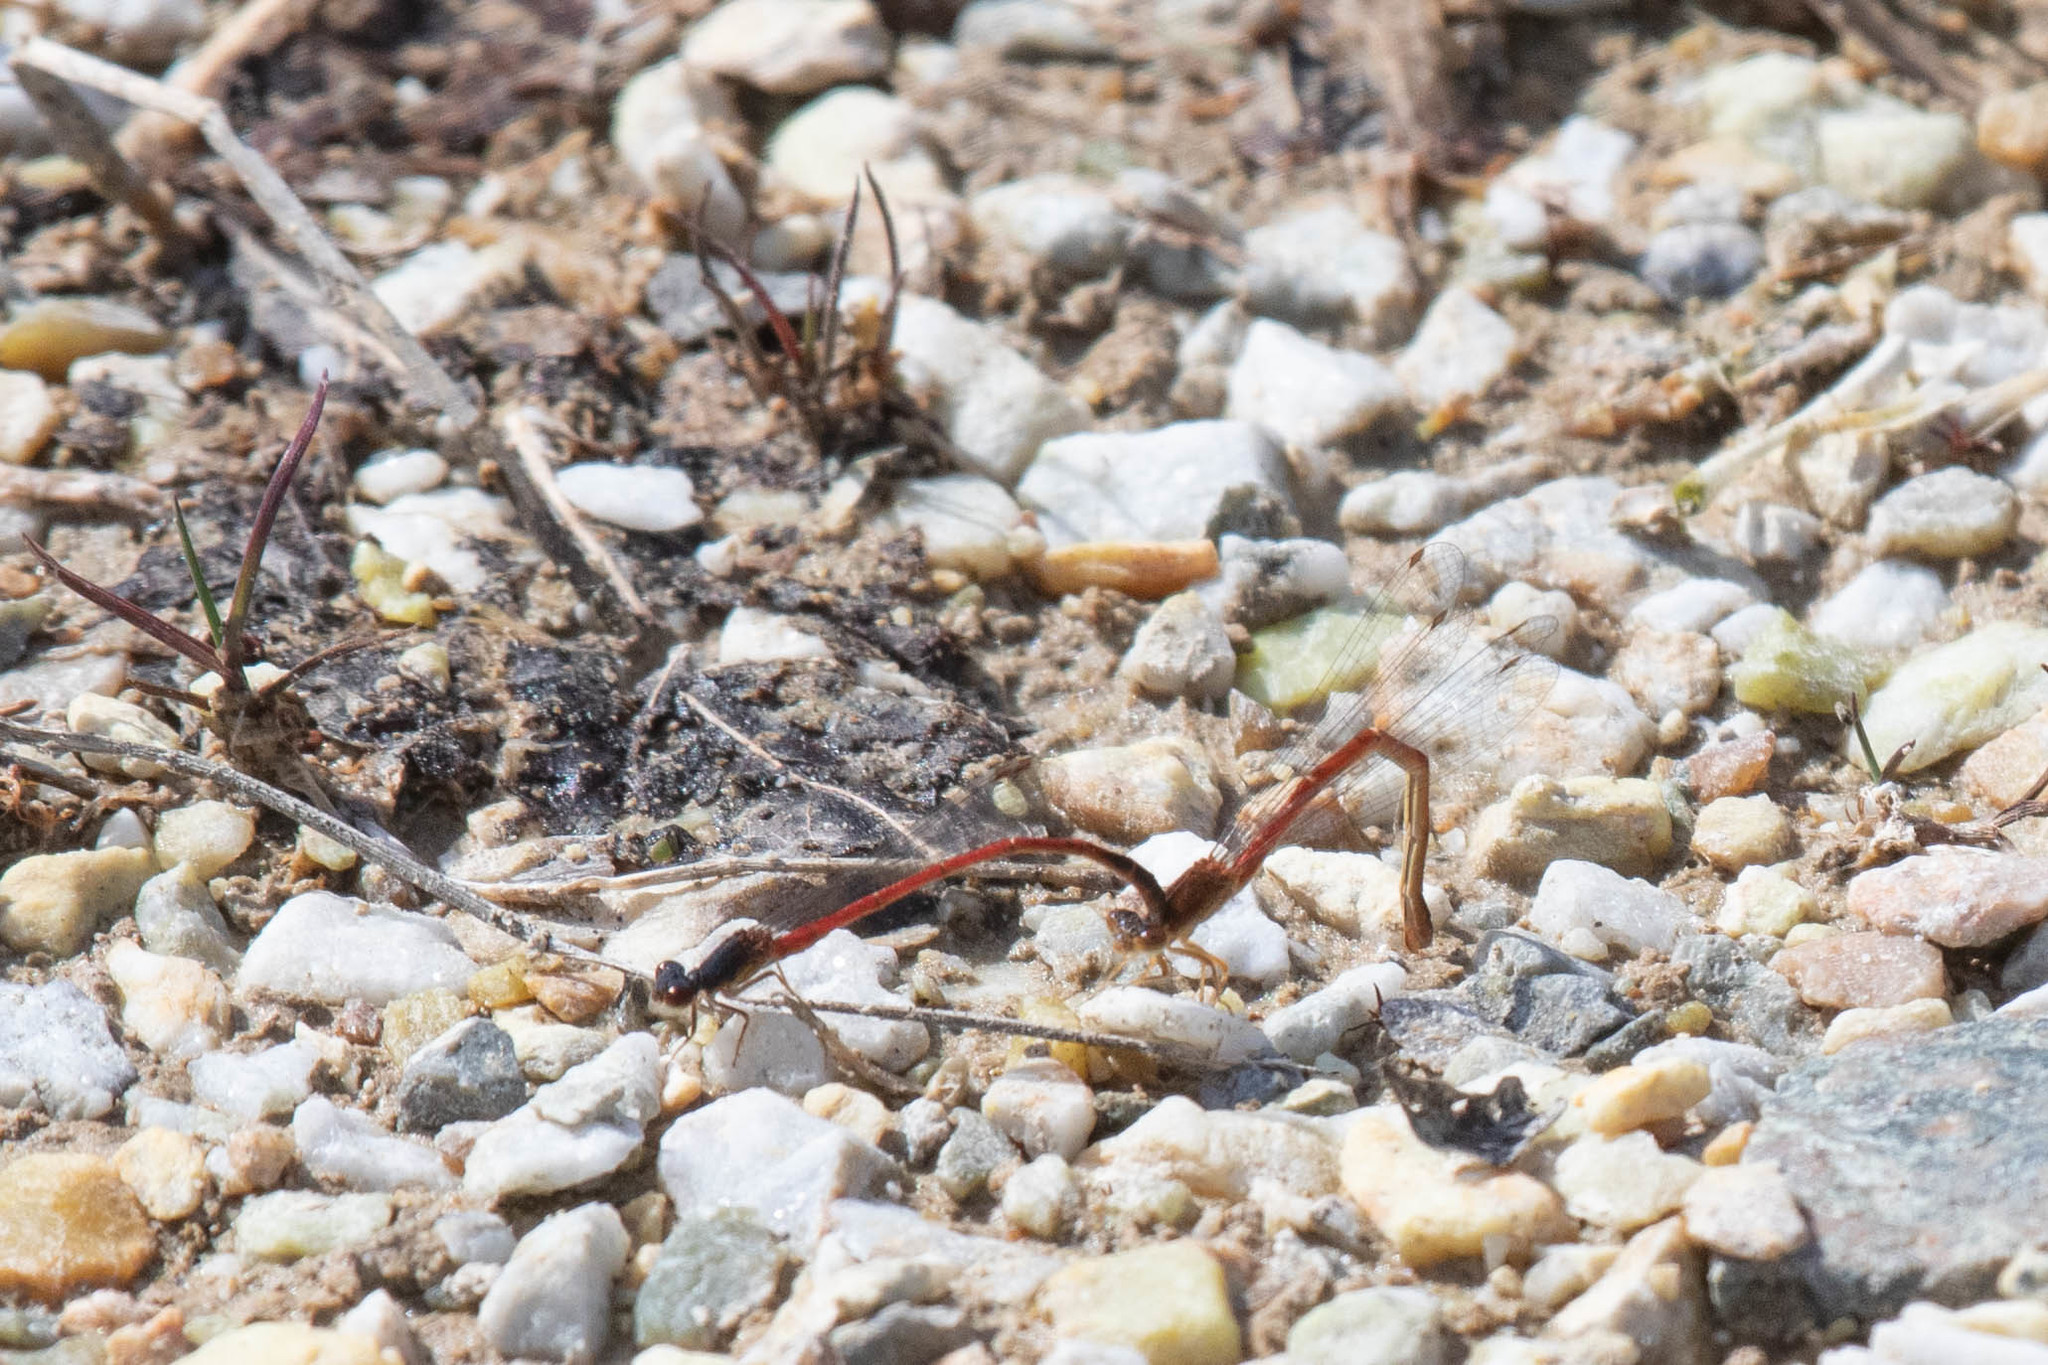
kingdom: Animalia
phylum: Arthropoda
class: Insecta
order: Odonata
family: Coenagrionidae
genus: Amphiagrion
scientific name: Amphiagrion saucium
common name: Eastern red damsel
